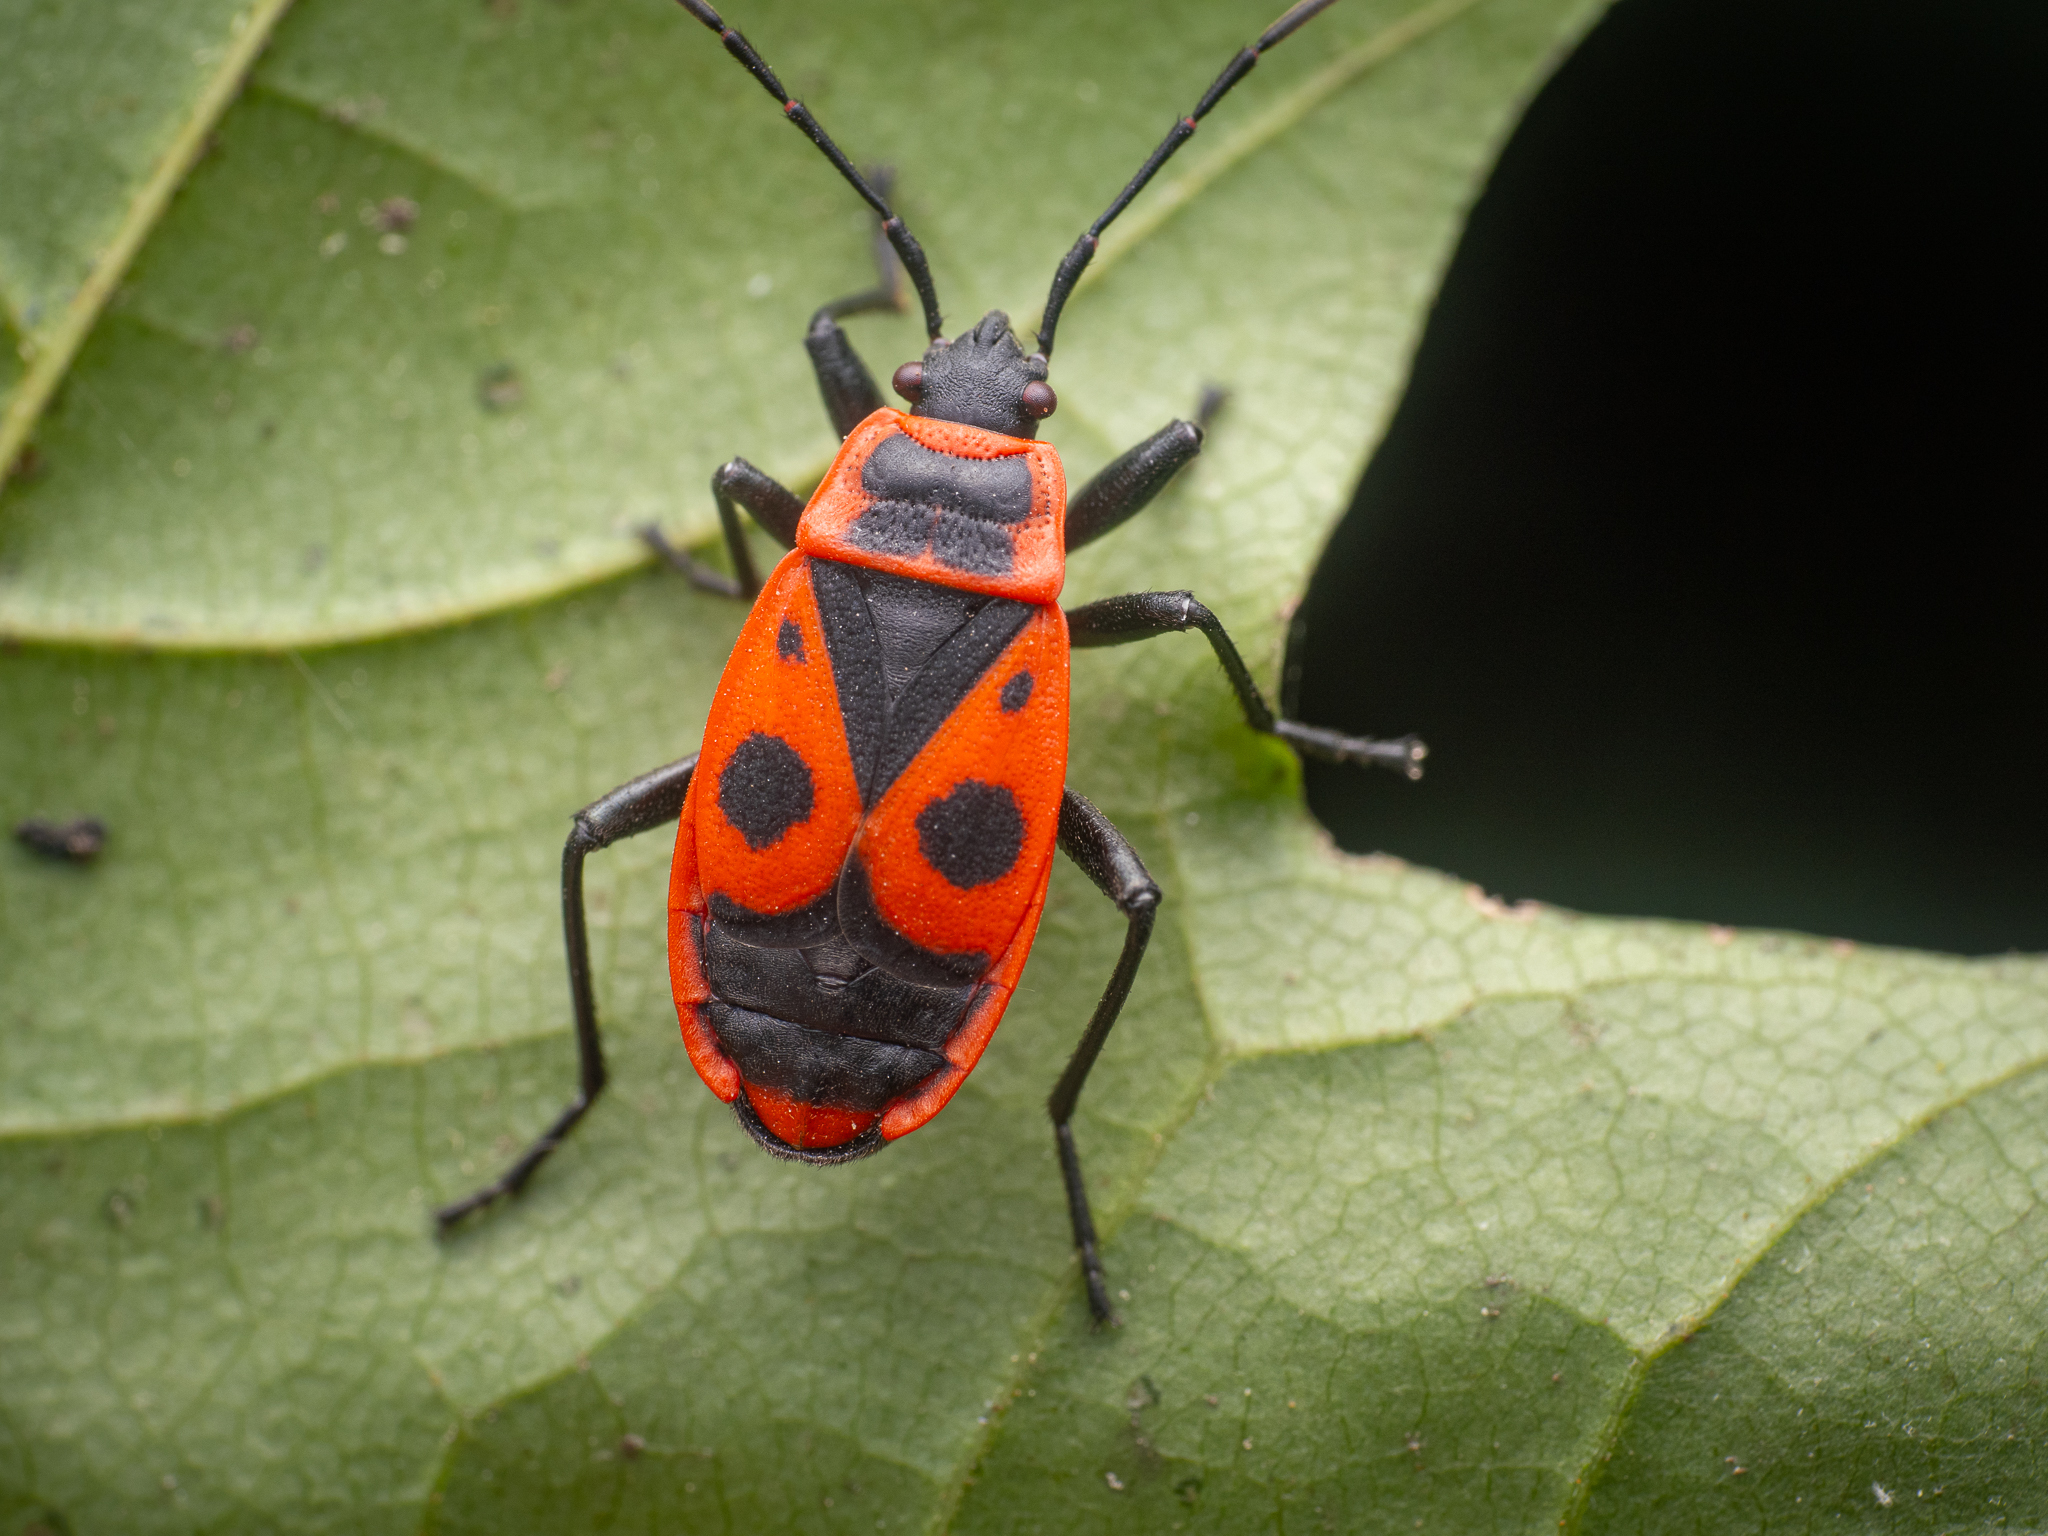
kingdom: Animalia
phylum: Arthropoda
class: Insecta
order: Hemiptera
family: Pyrrhocoridae
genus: Pyrrhocoris
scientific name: Pyrrhocoris apterus
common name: Firebug
